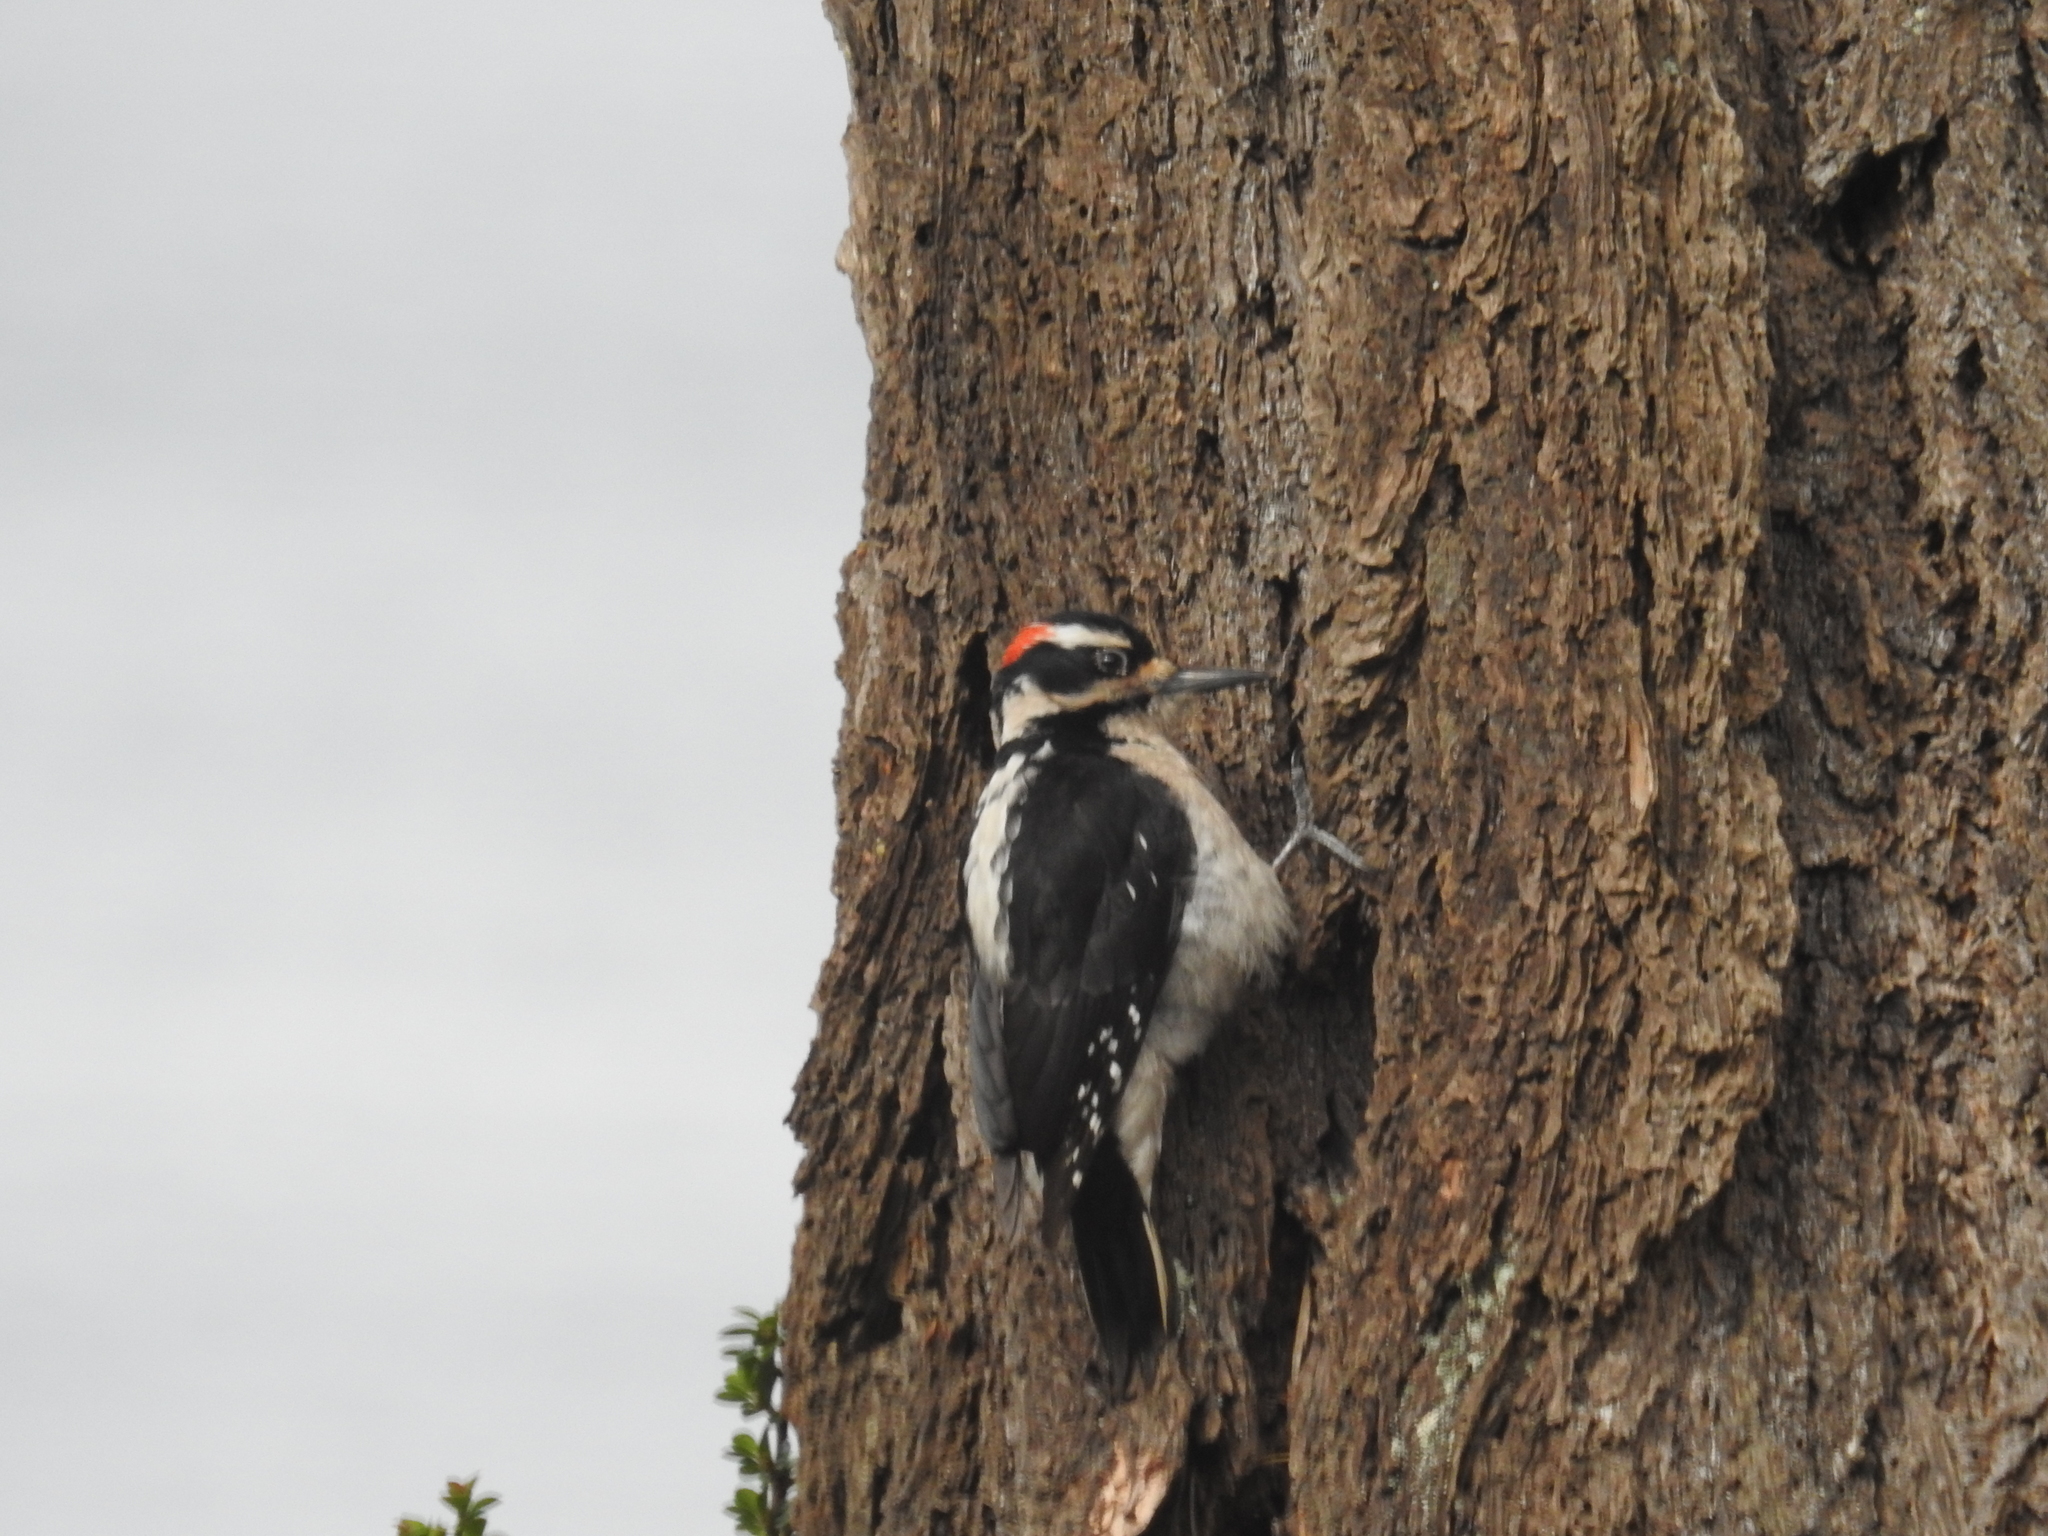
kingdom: Animalia
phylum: Chordata
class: Aves
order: Piciformes
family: Picidae
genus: Leuconotopicus
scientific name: Leuconotopicus villosus
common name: Hairy woodpecker
